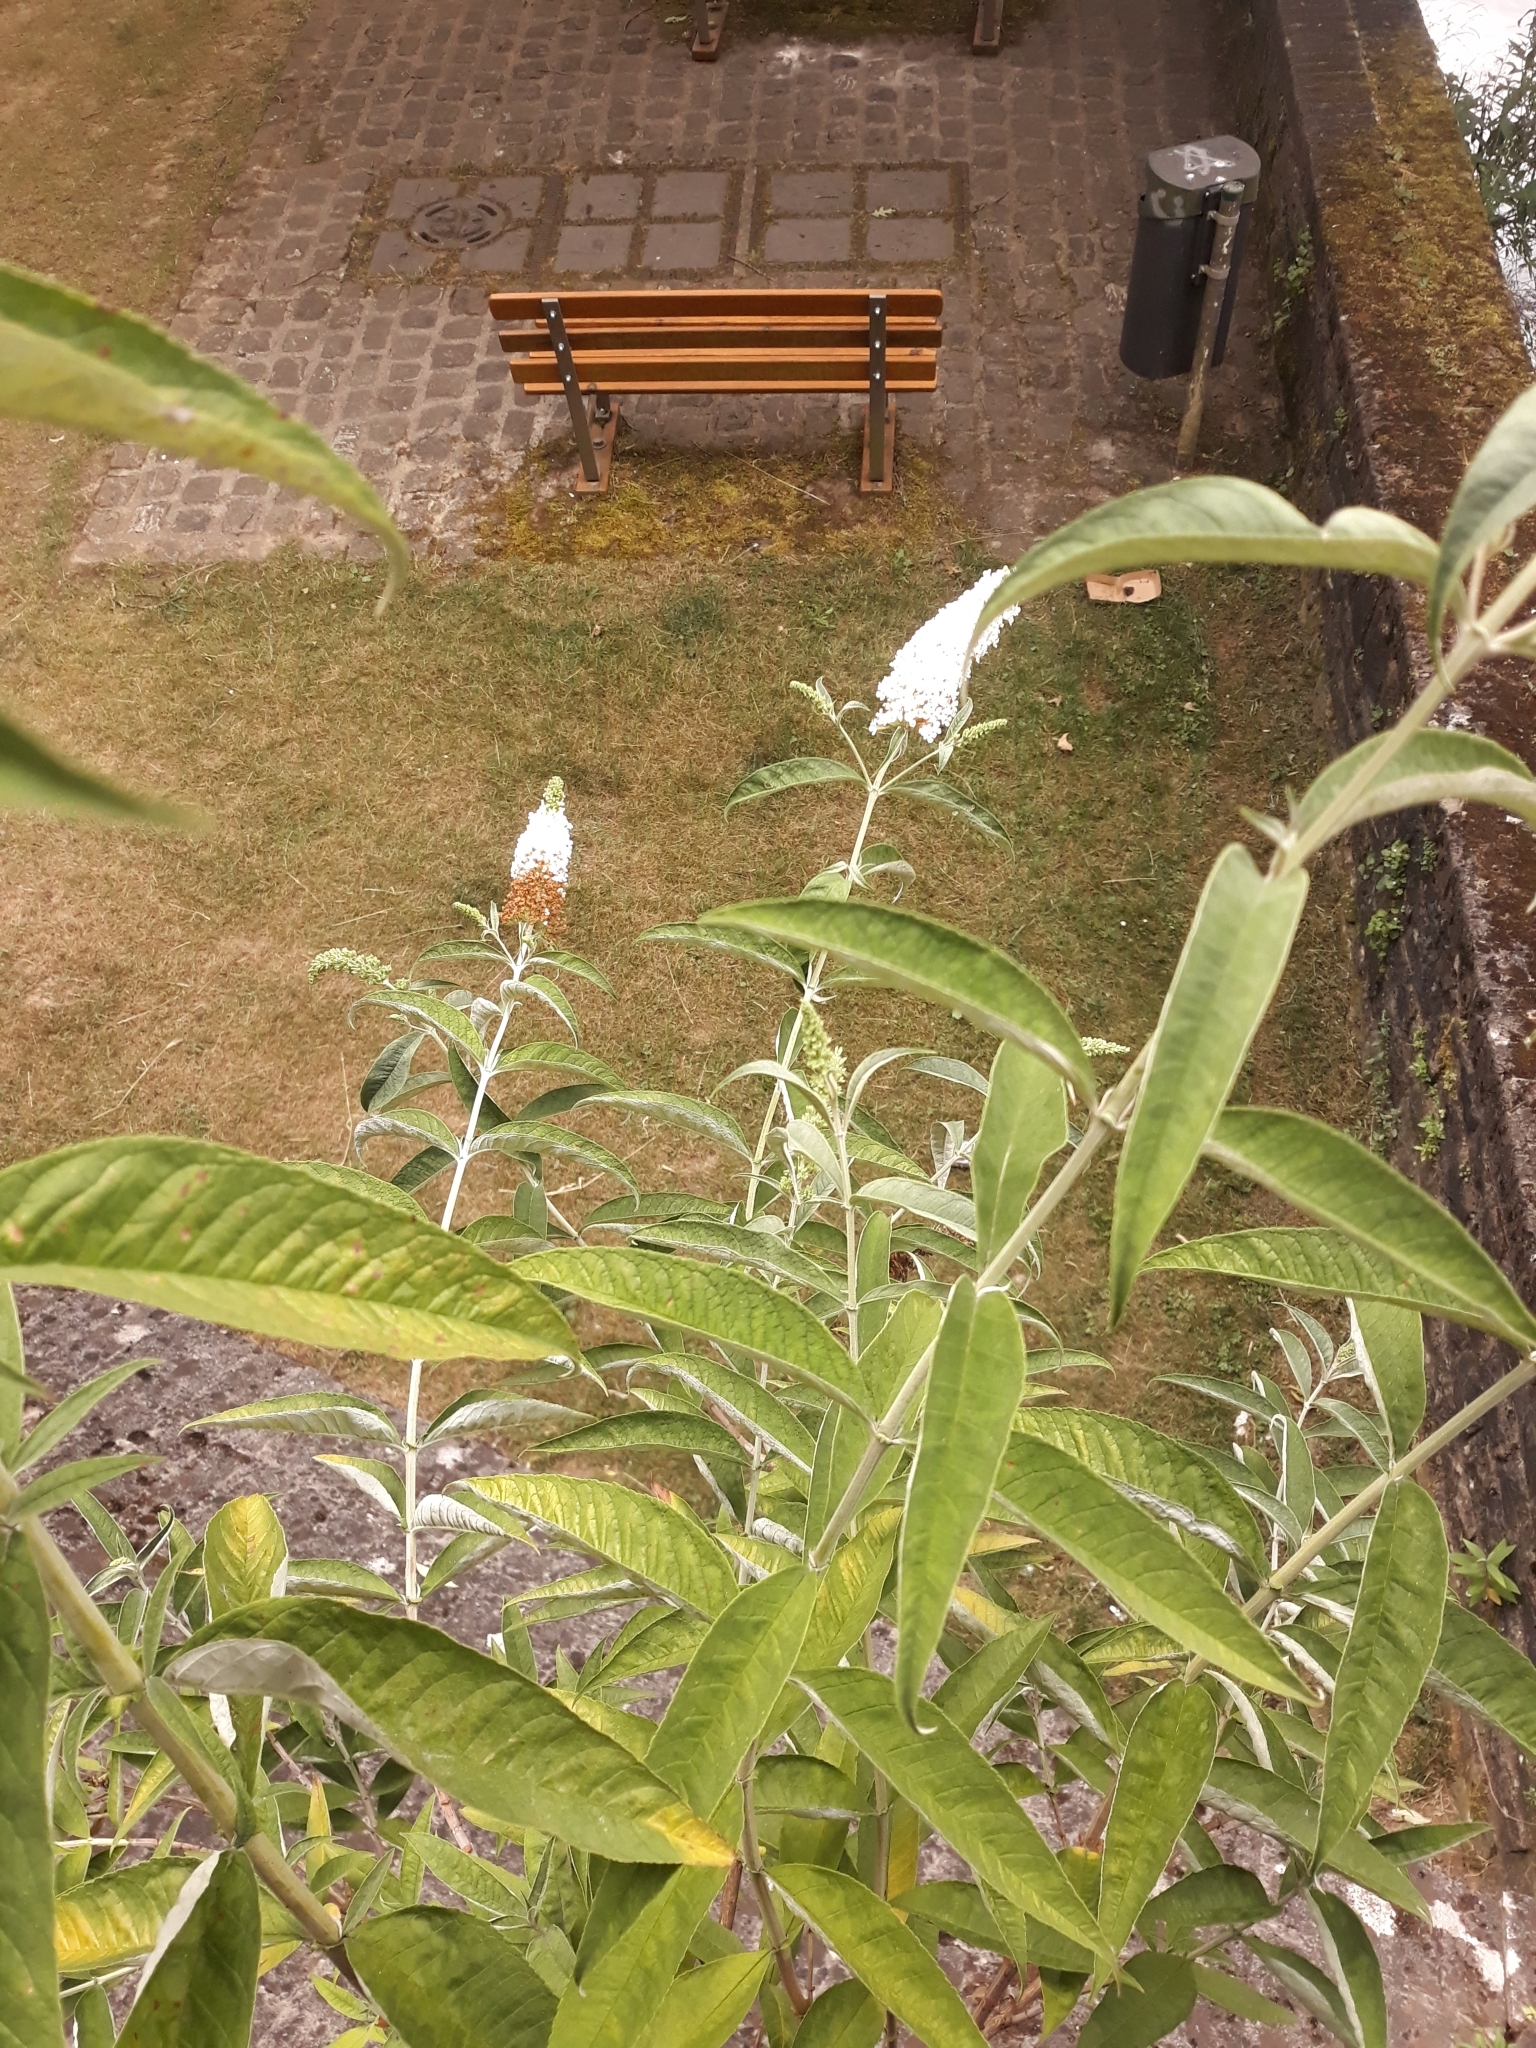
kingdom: Plantae
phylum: Tracheophyta
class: Magnoliopsida
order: Lamiales
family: Scrophulariaceae
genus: Buddleja
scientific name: Buddleja davidii
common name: Butterfly-bush
